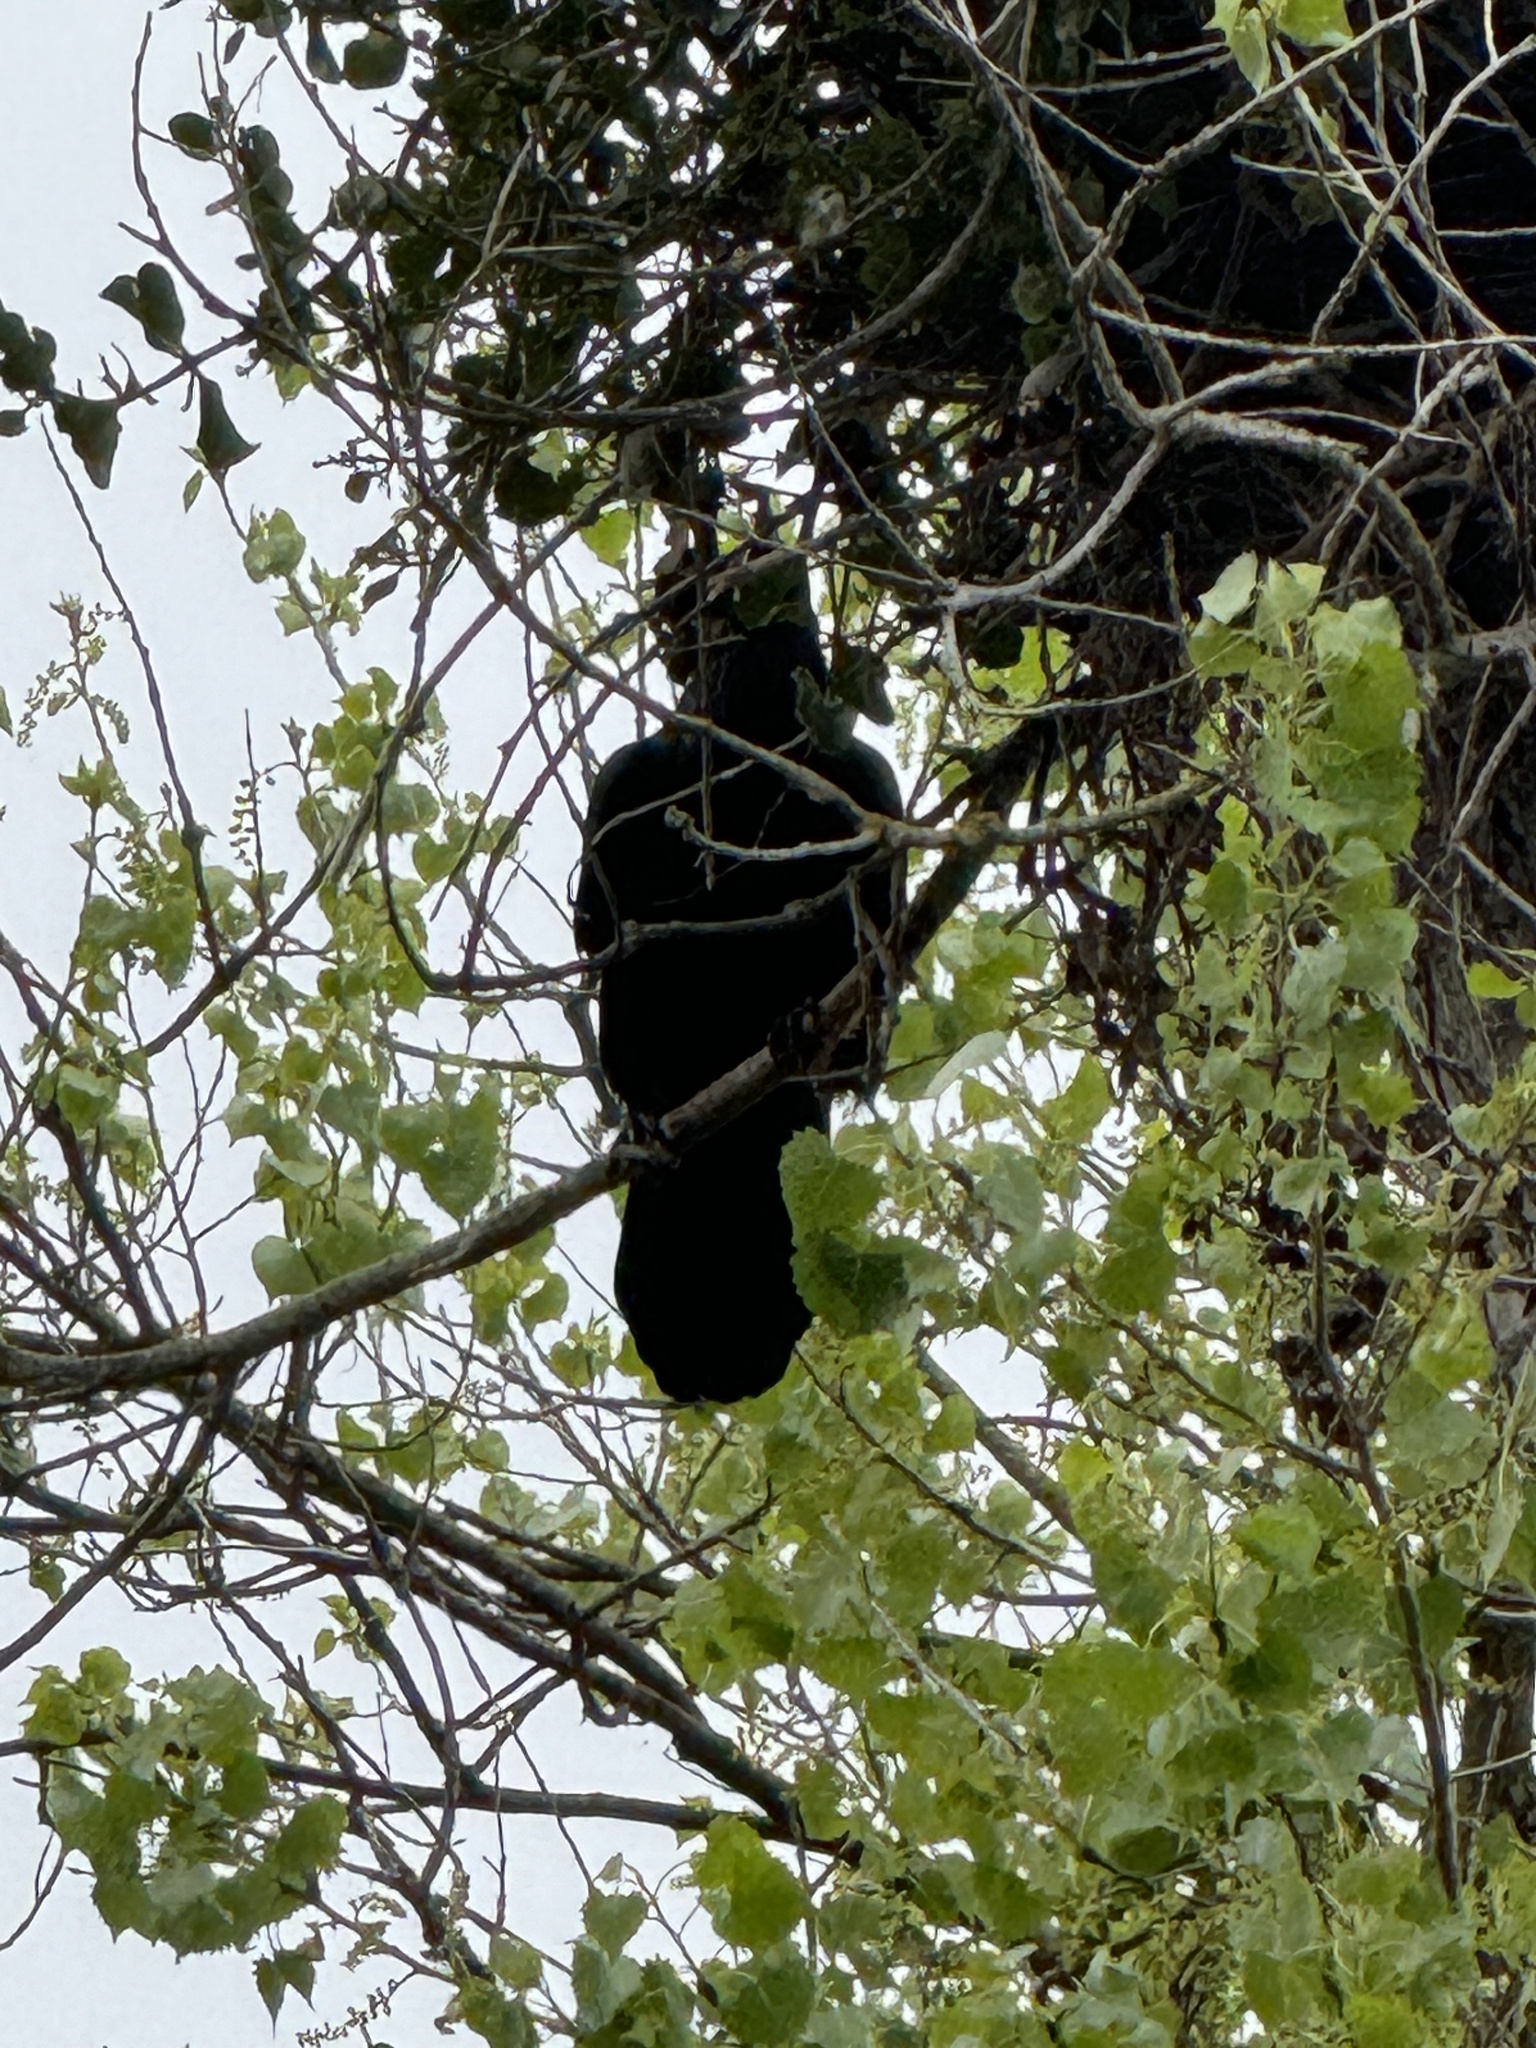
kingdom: Animalia
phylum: Chordata
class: Aves
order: Passeriformes
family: Corvidae
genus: Corvus
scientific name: Corvus corax
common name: Common raven
